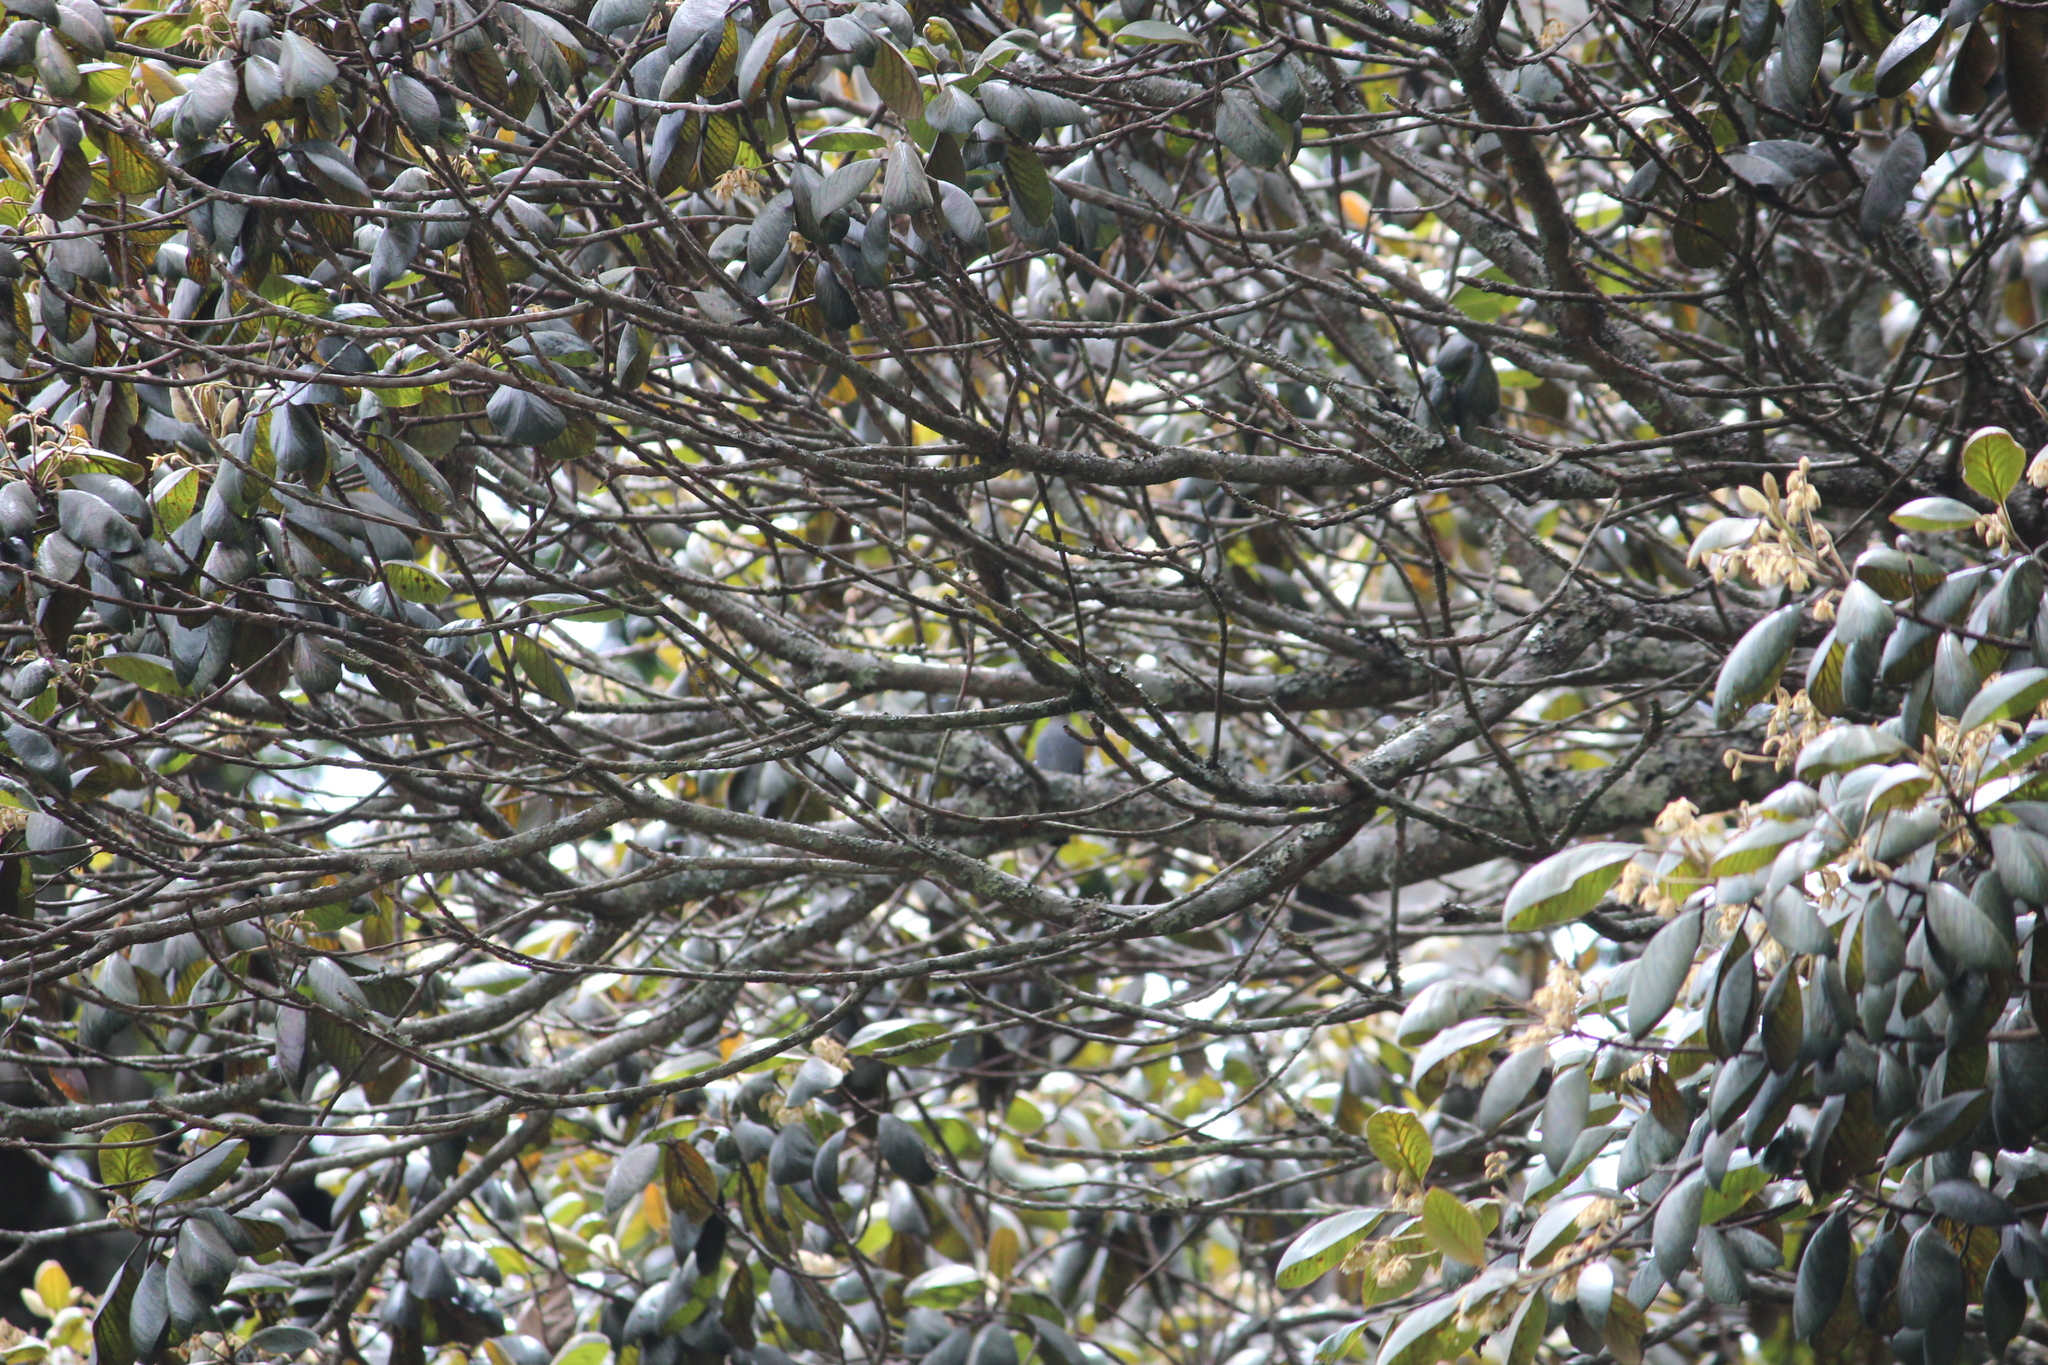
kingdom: Plantae
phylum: Tracheophyta
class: Magnoliopsida
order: Oxalidales
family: Elaeocarpaceae
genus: Elaeocarpus
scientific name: Elaeocarpus recurvatus
